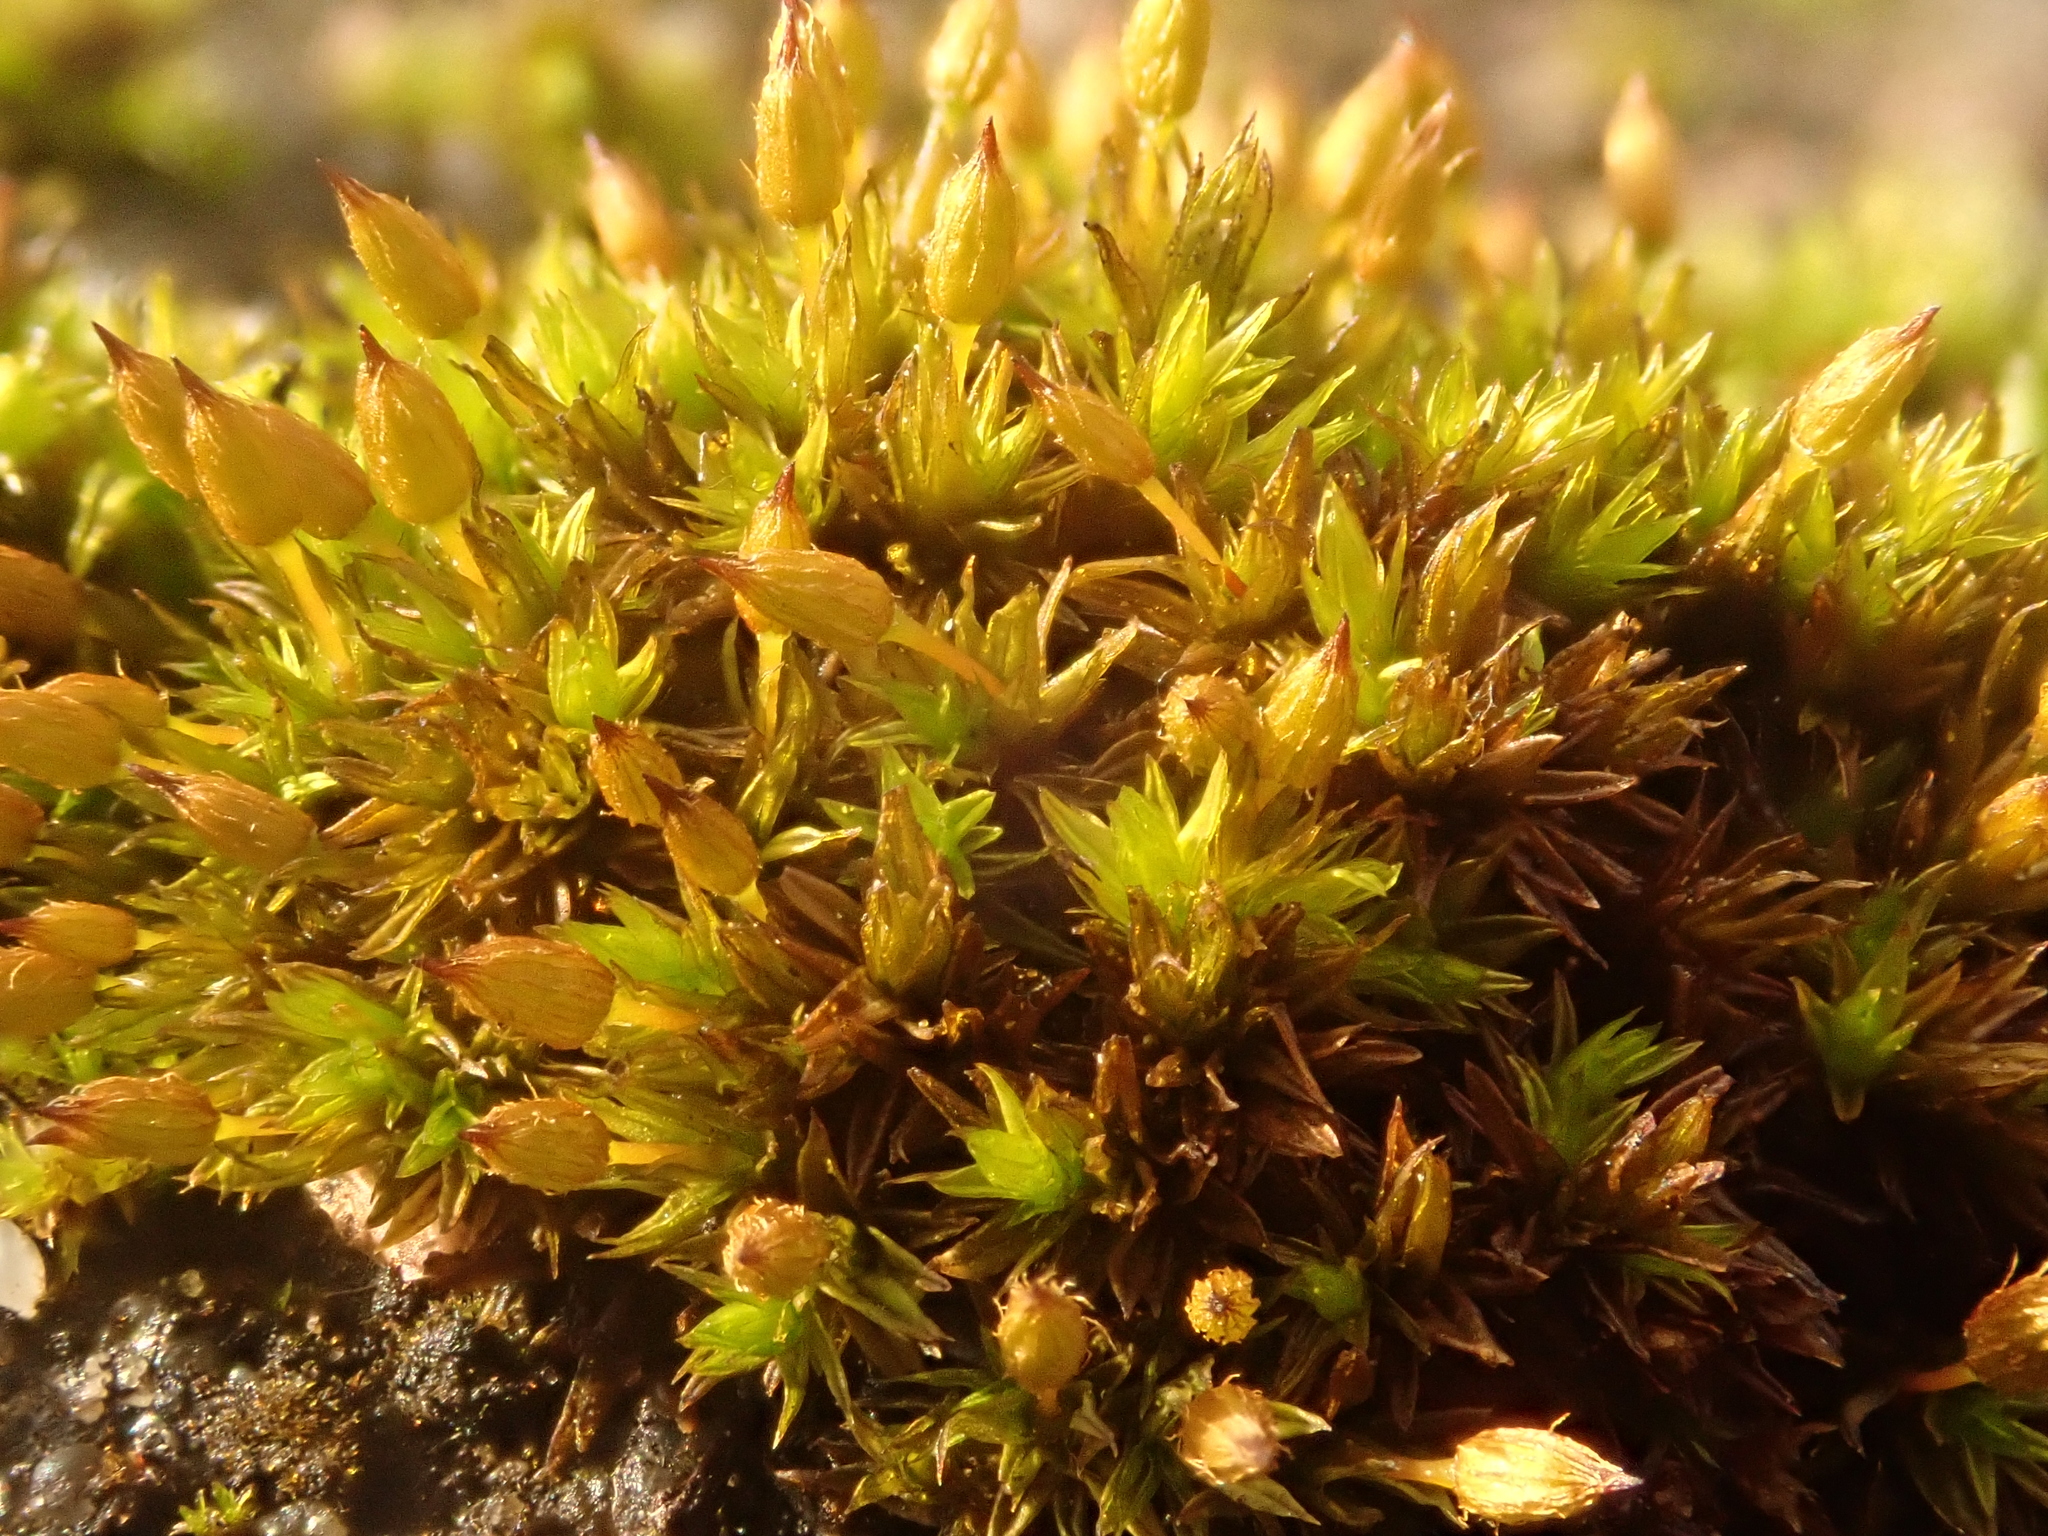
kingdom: Plantae
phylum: Bryophyta
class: Bryopsida
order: Orthotrichales
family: Orthotrichaceae
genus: Orthotrichum
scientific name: Orthotrichum anomalum
